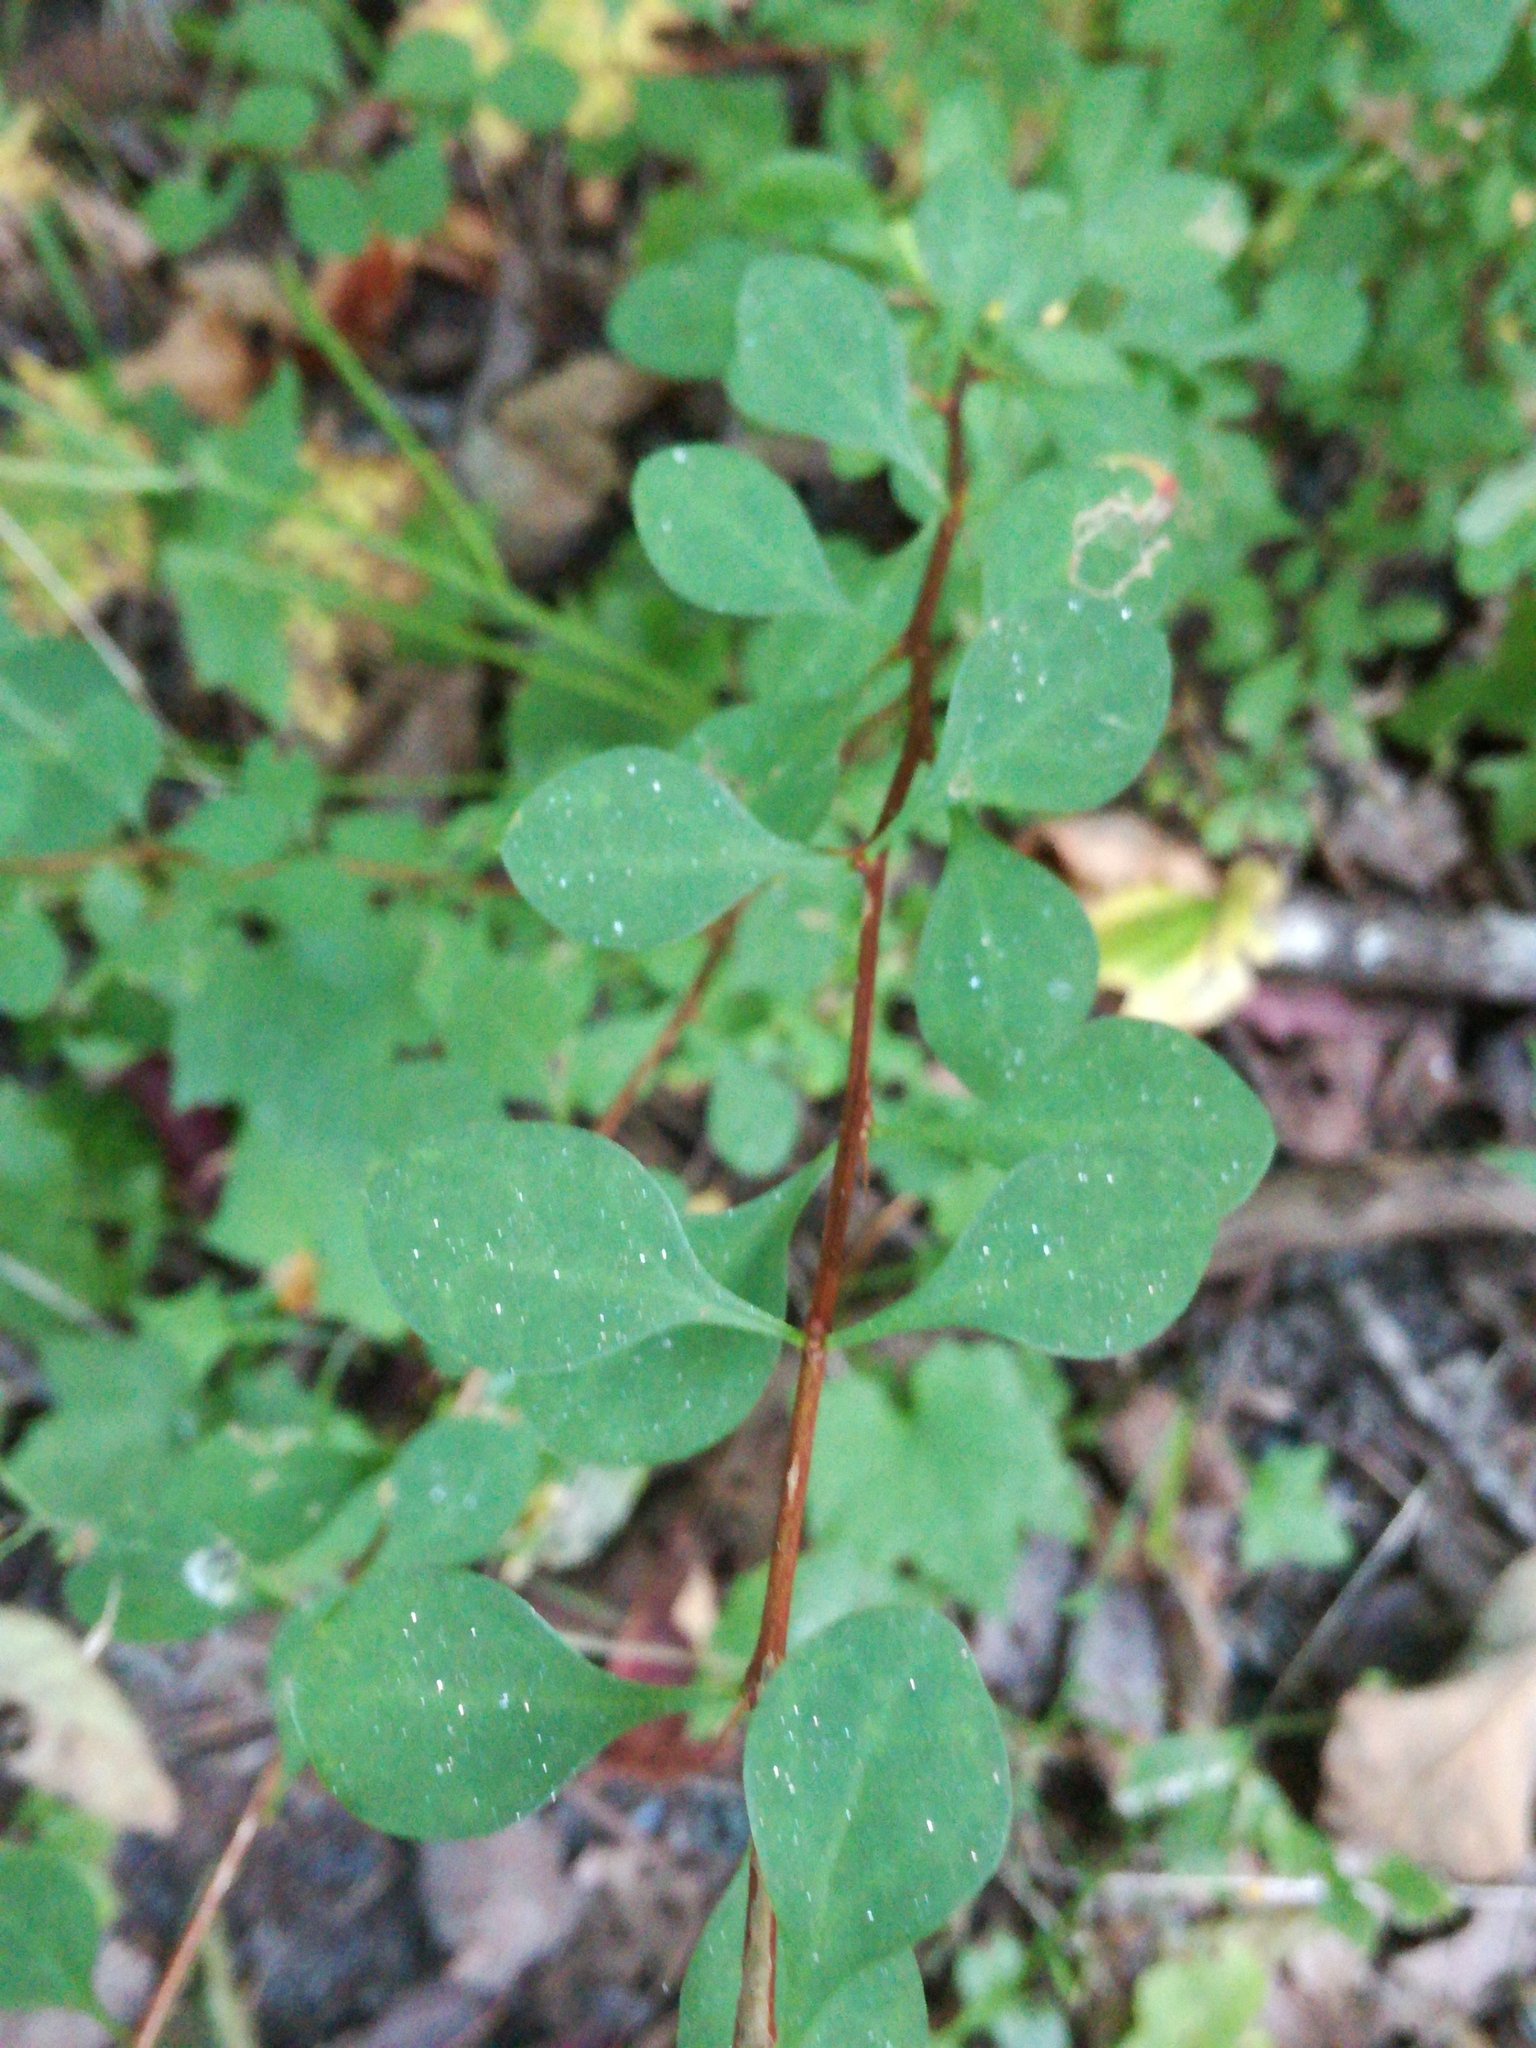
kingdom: Plantae
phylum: Tracheophyta
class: Magnoliopsida
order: Ranunculales
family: Berberidaceae
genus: Berberis
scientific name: Berberis thunbergii
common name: Japanese barberry
